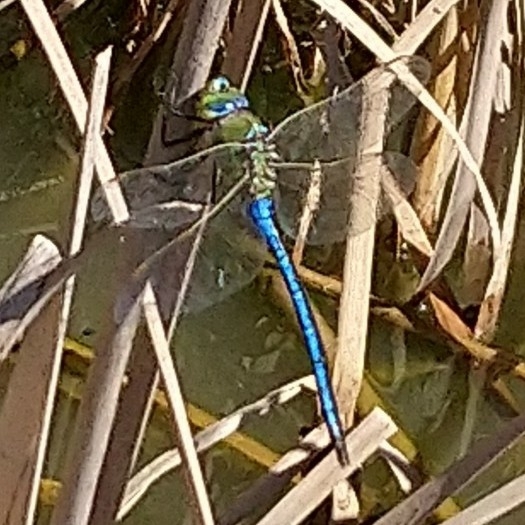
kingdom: Animalia
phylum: Arthropoda
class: Insecta
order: Odonata
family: Aeshnidae
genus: Anax
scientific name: Anax imperator
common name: Emperor dragonfly
